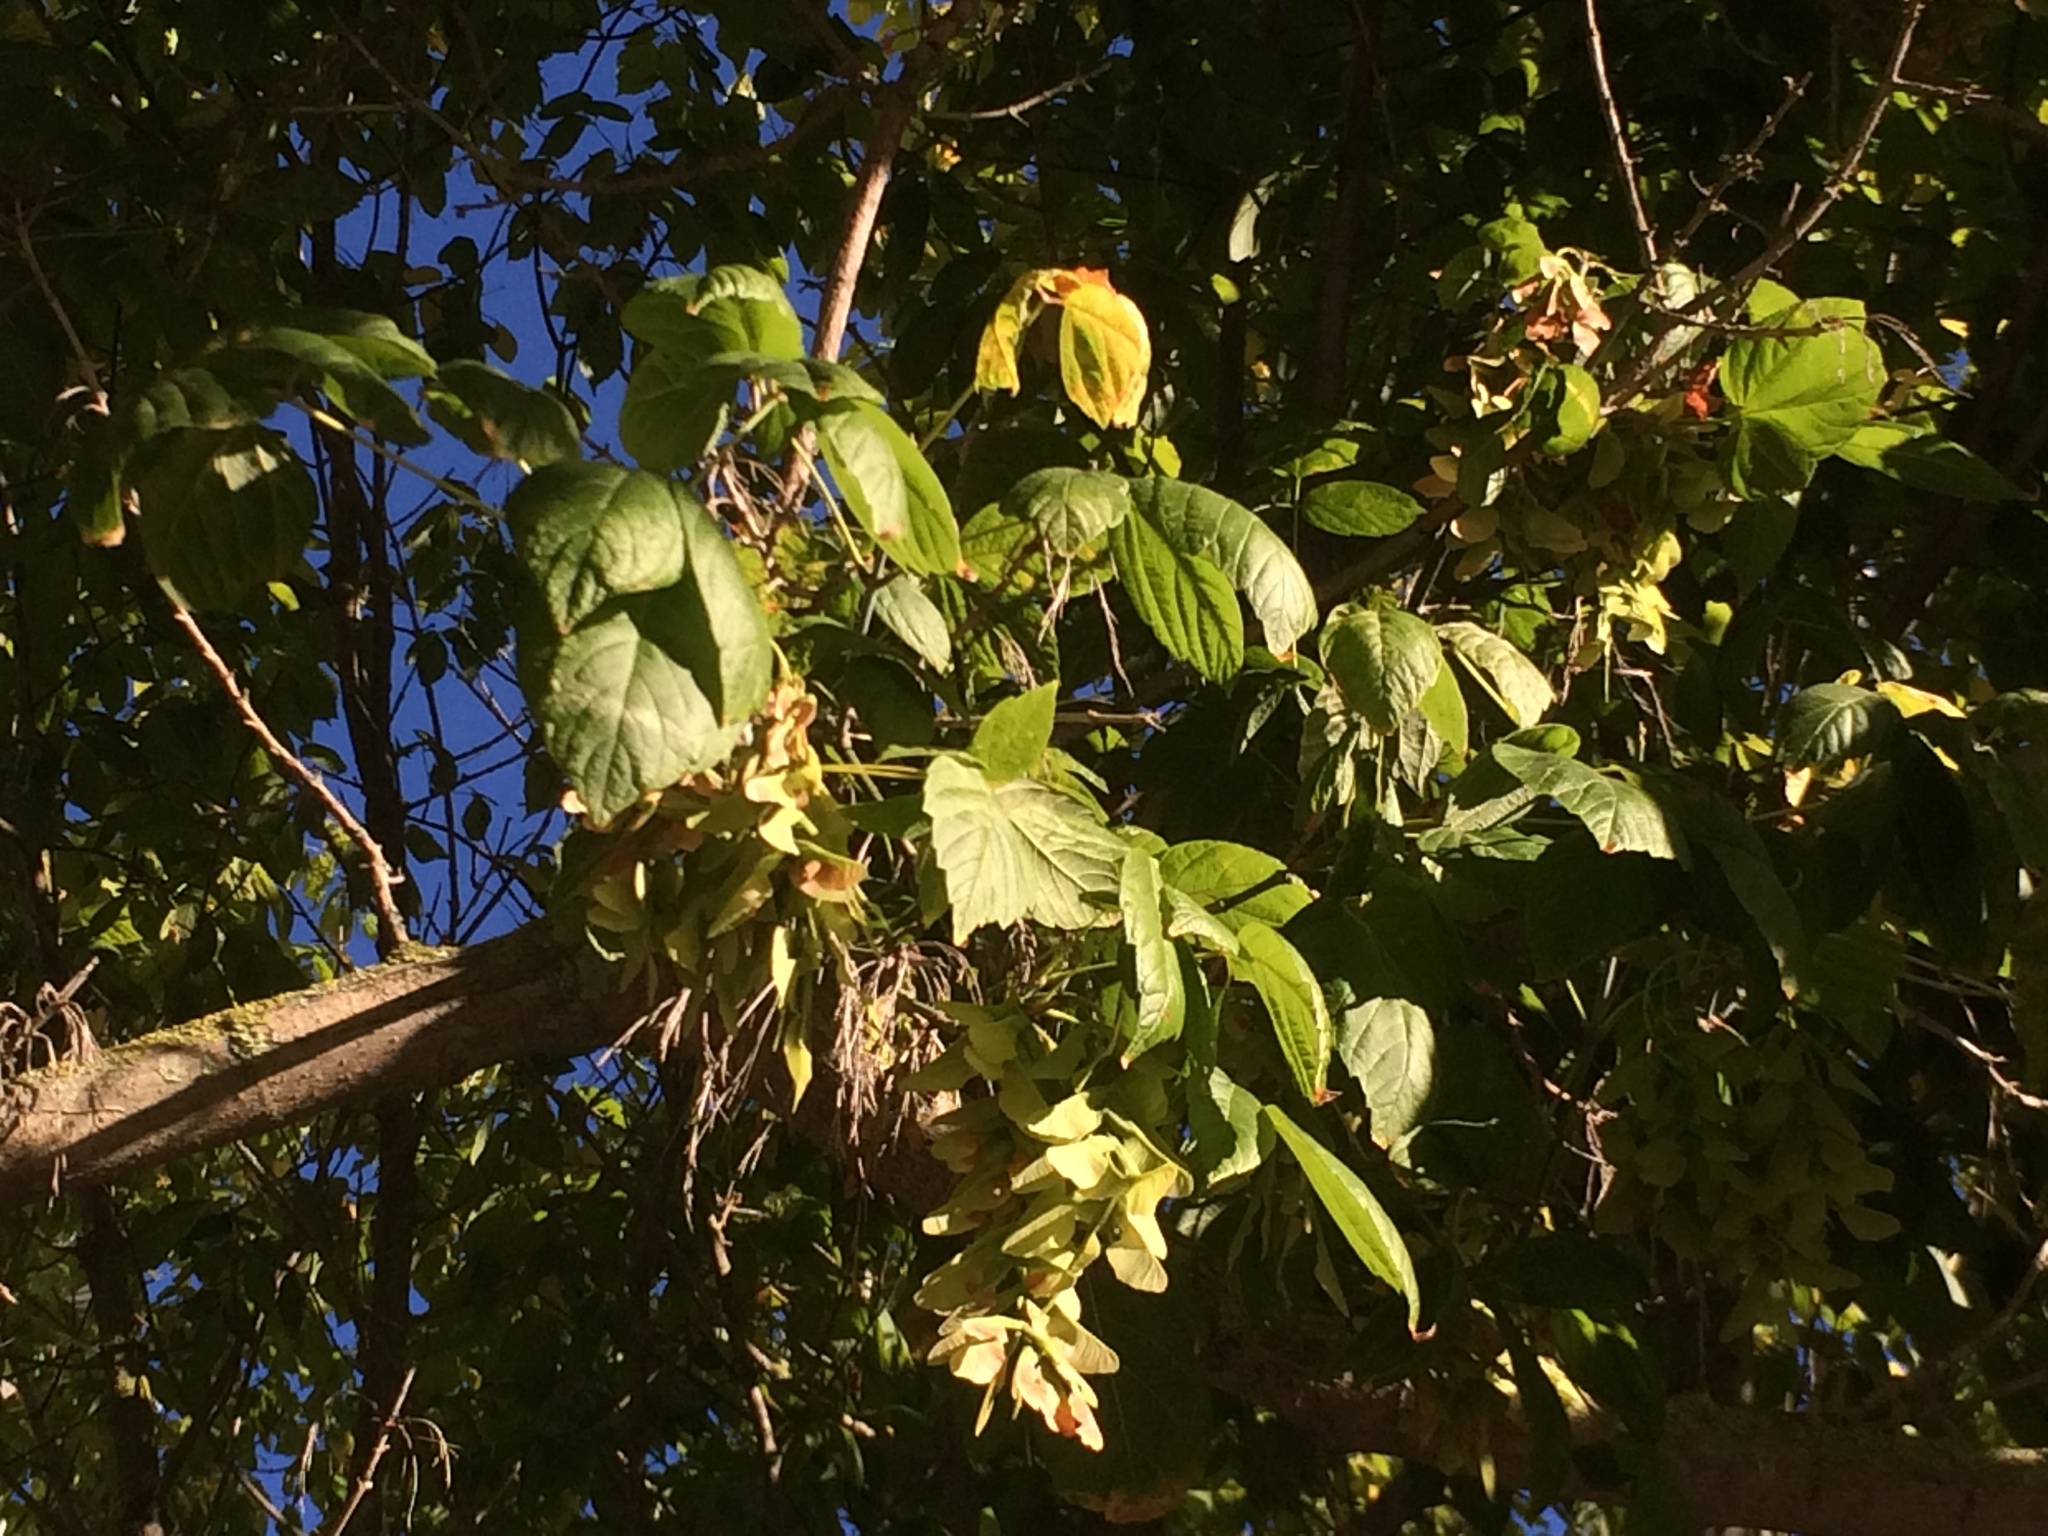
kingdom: Plantae
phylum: Tracheophyta
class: Magnoliopsida
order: Sapindales
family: Sapindaceae
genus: Acer
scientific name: Acer negundo
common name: Ashleaf maple
